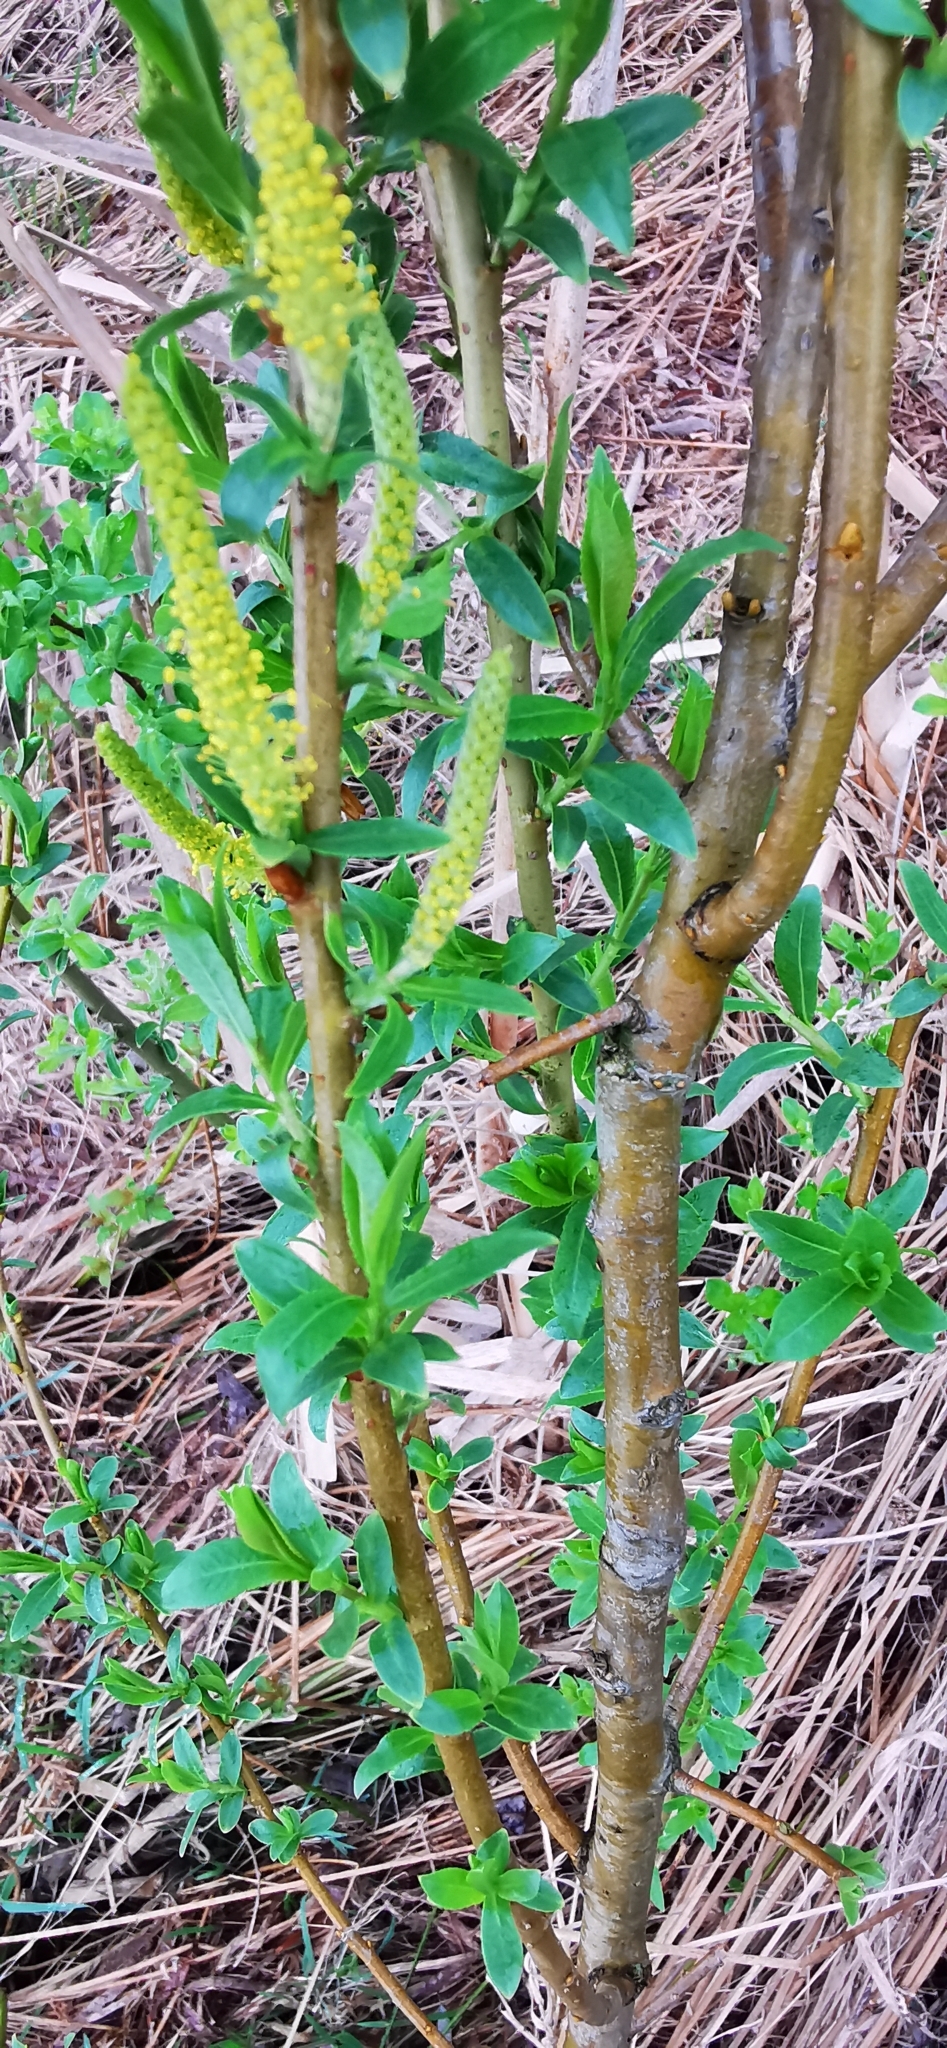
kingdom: Plantae
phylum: Tracheophyta
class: Magnoliopsida
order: Malpighiales
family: Salicaceae
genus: Salix
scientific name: Salix triandra
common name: Almond willow
